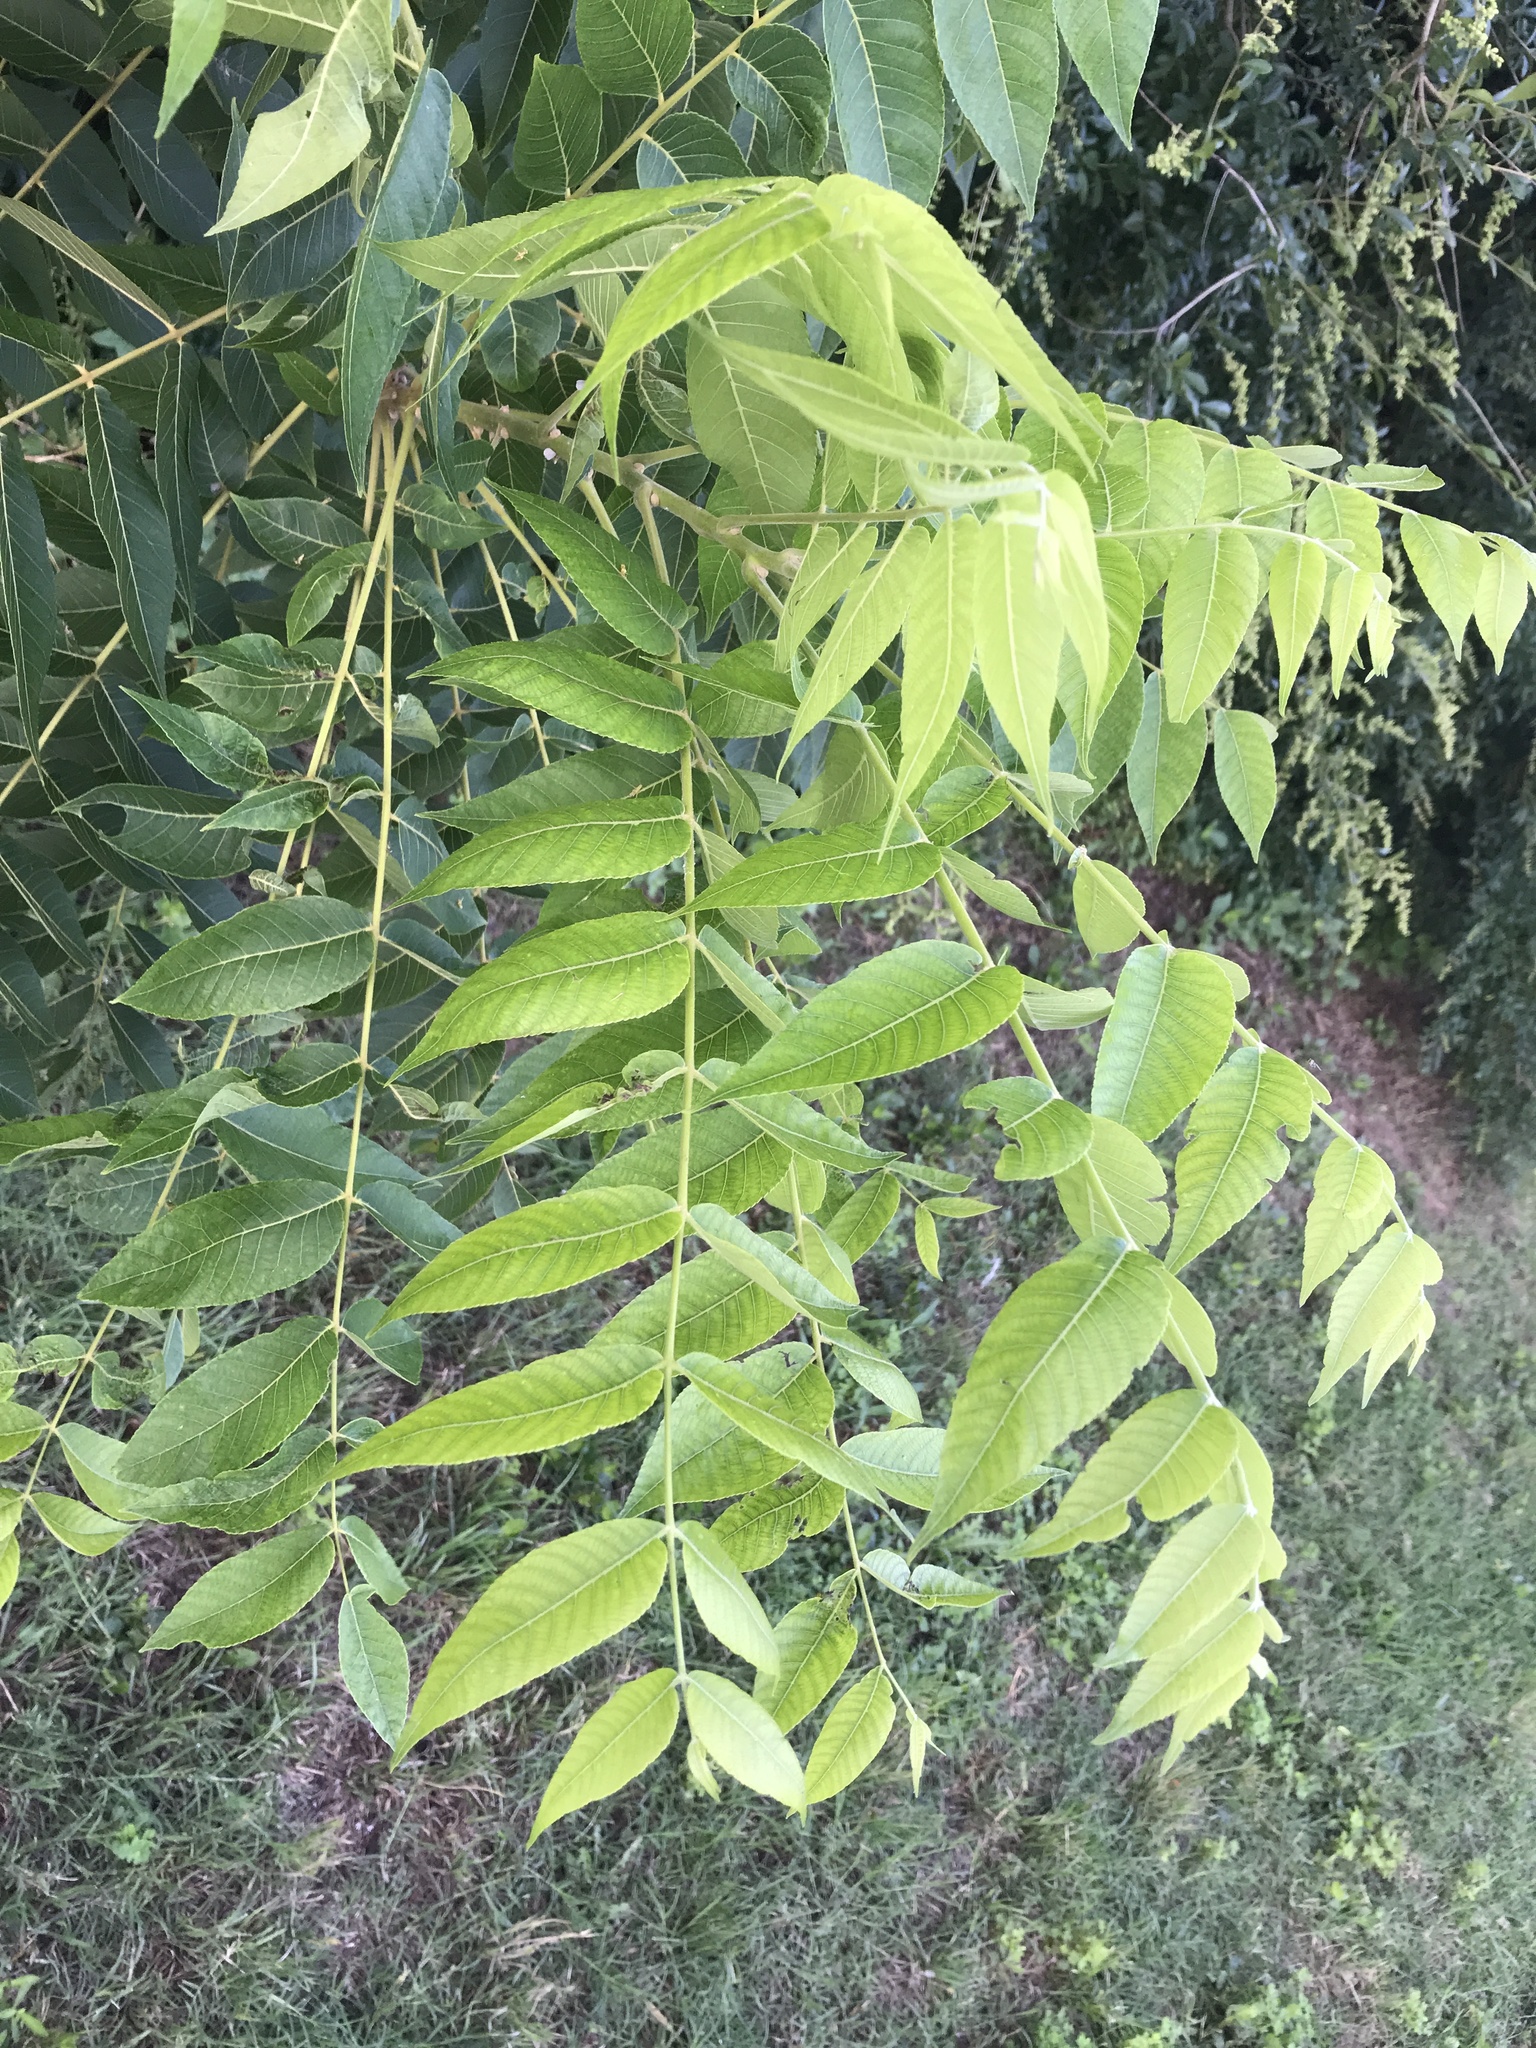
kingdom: Plantae
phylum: Tracheophyta
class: Magnoliopsida
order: Fagales
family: Juglandaceae
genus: Juglans
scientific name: Juglans nigra
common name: Black walnut
